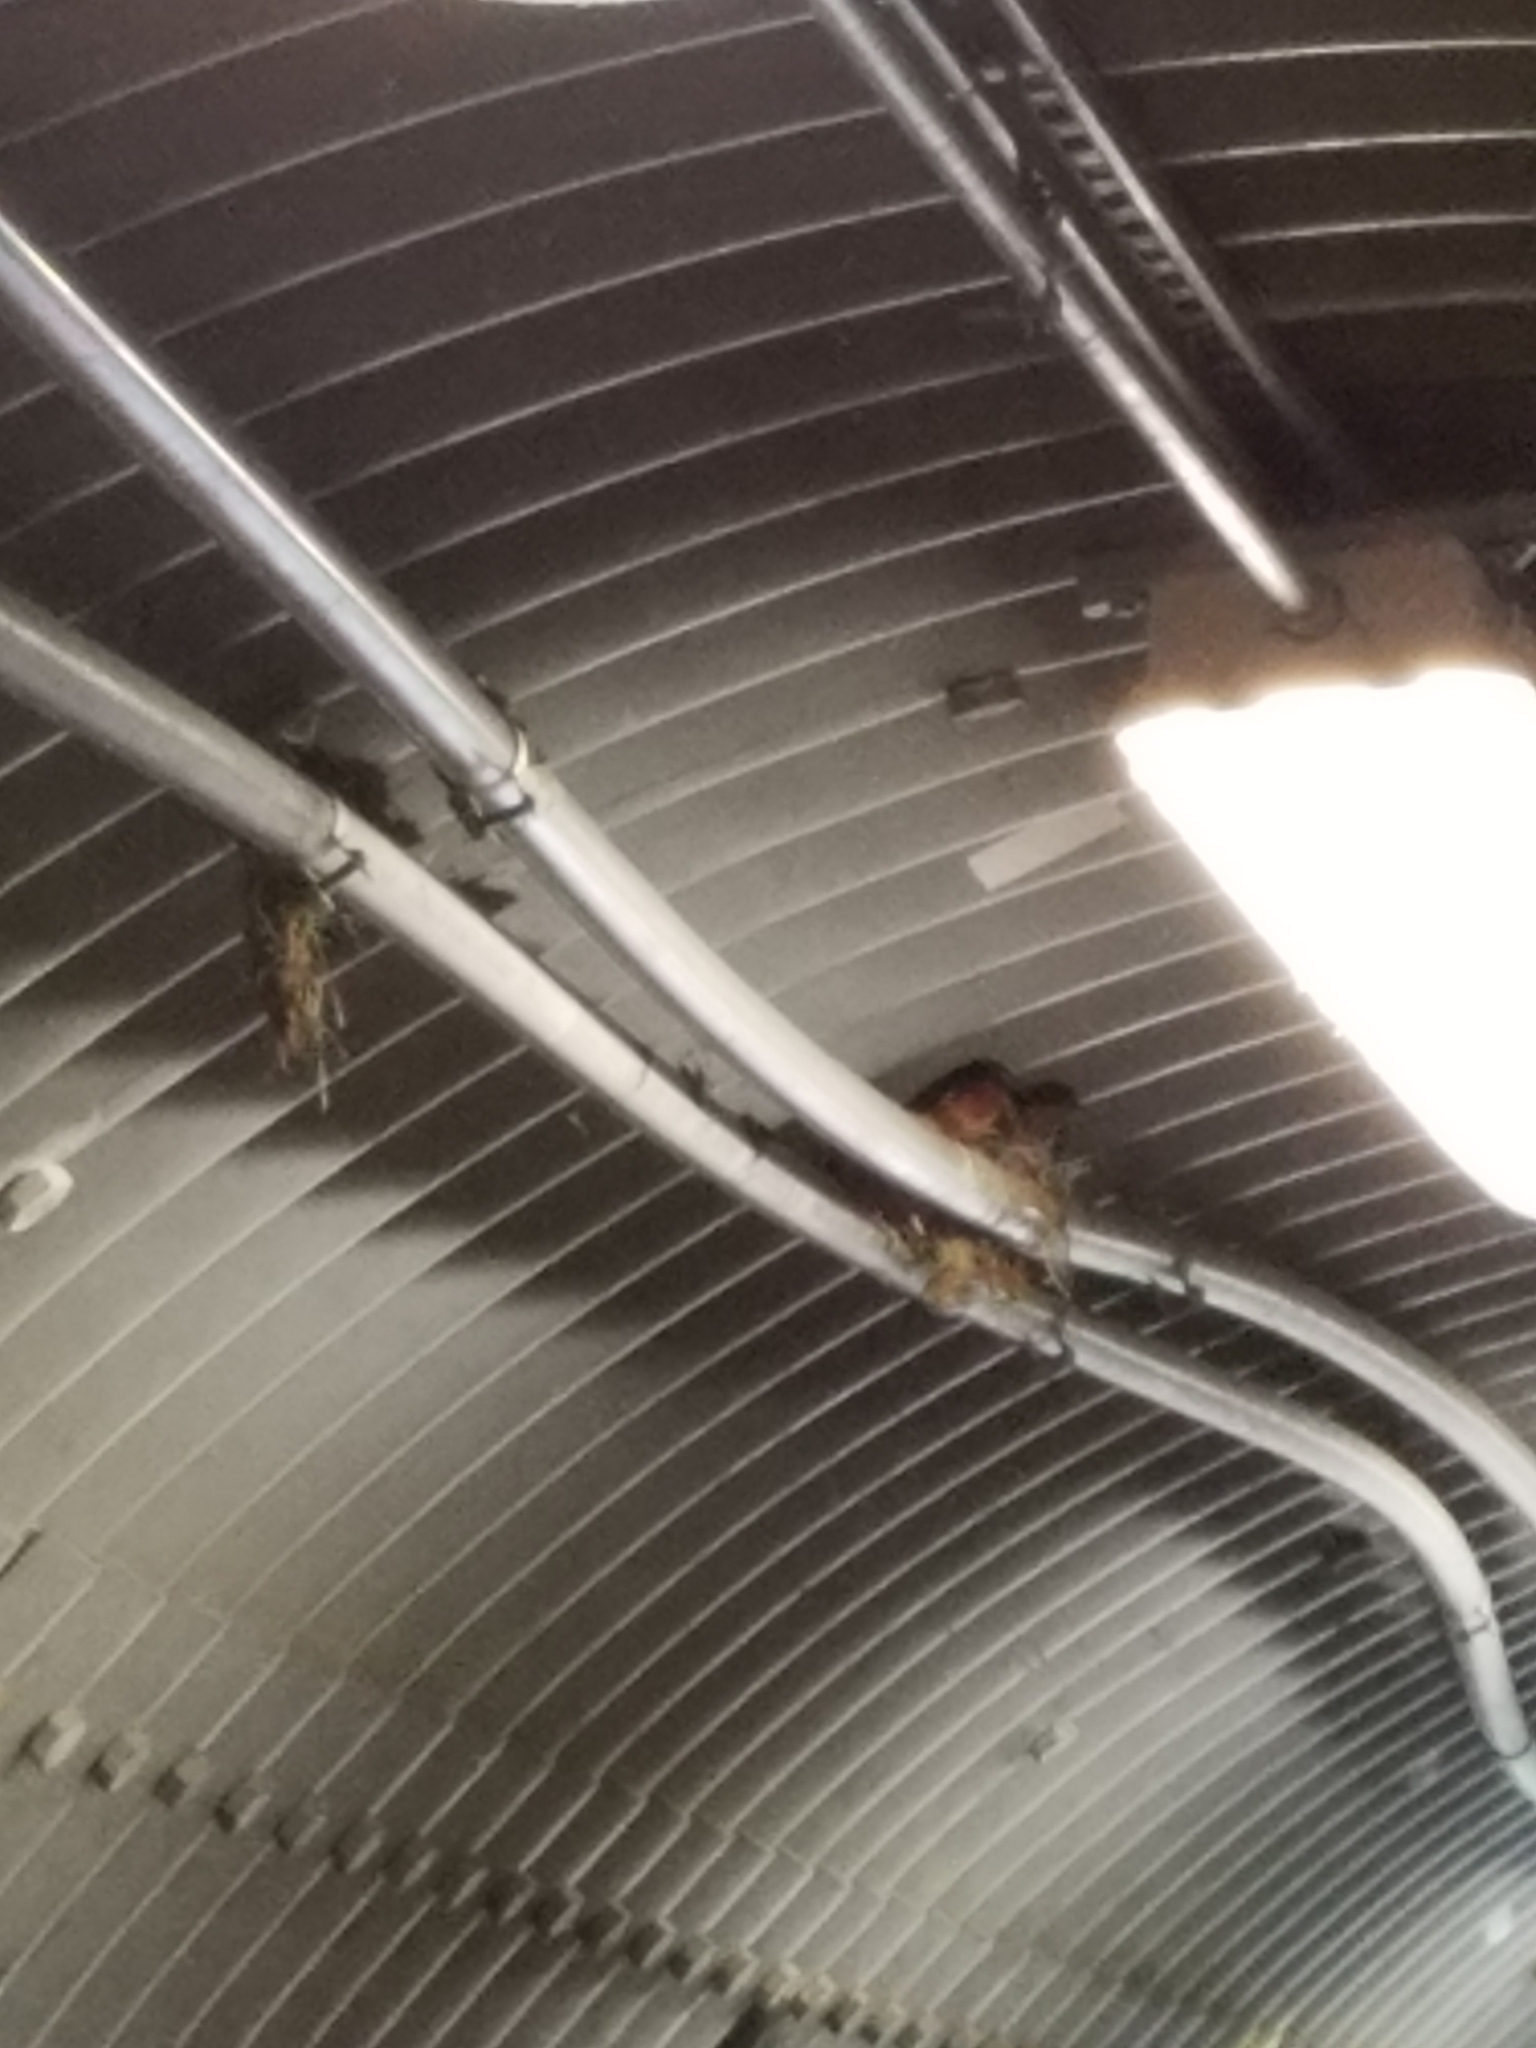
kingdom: Animalia
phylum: Chordata
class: Aves
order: Passeriformes
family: Hirundinidae
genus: Hirundo
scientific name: Hirundo rustica
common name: Barn swallow
